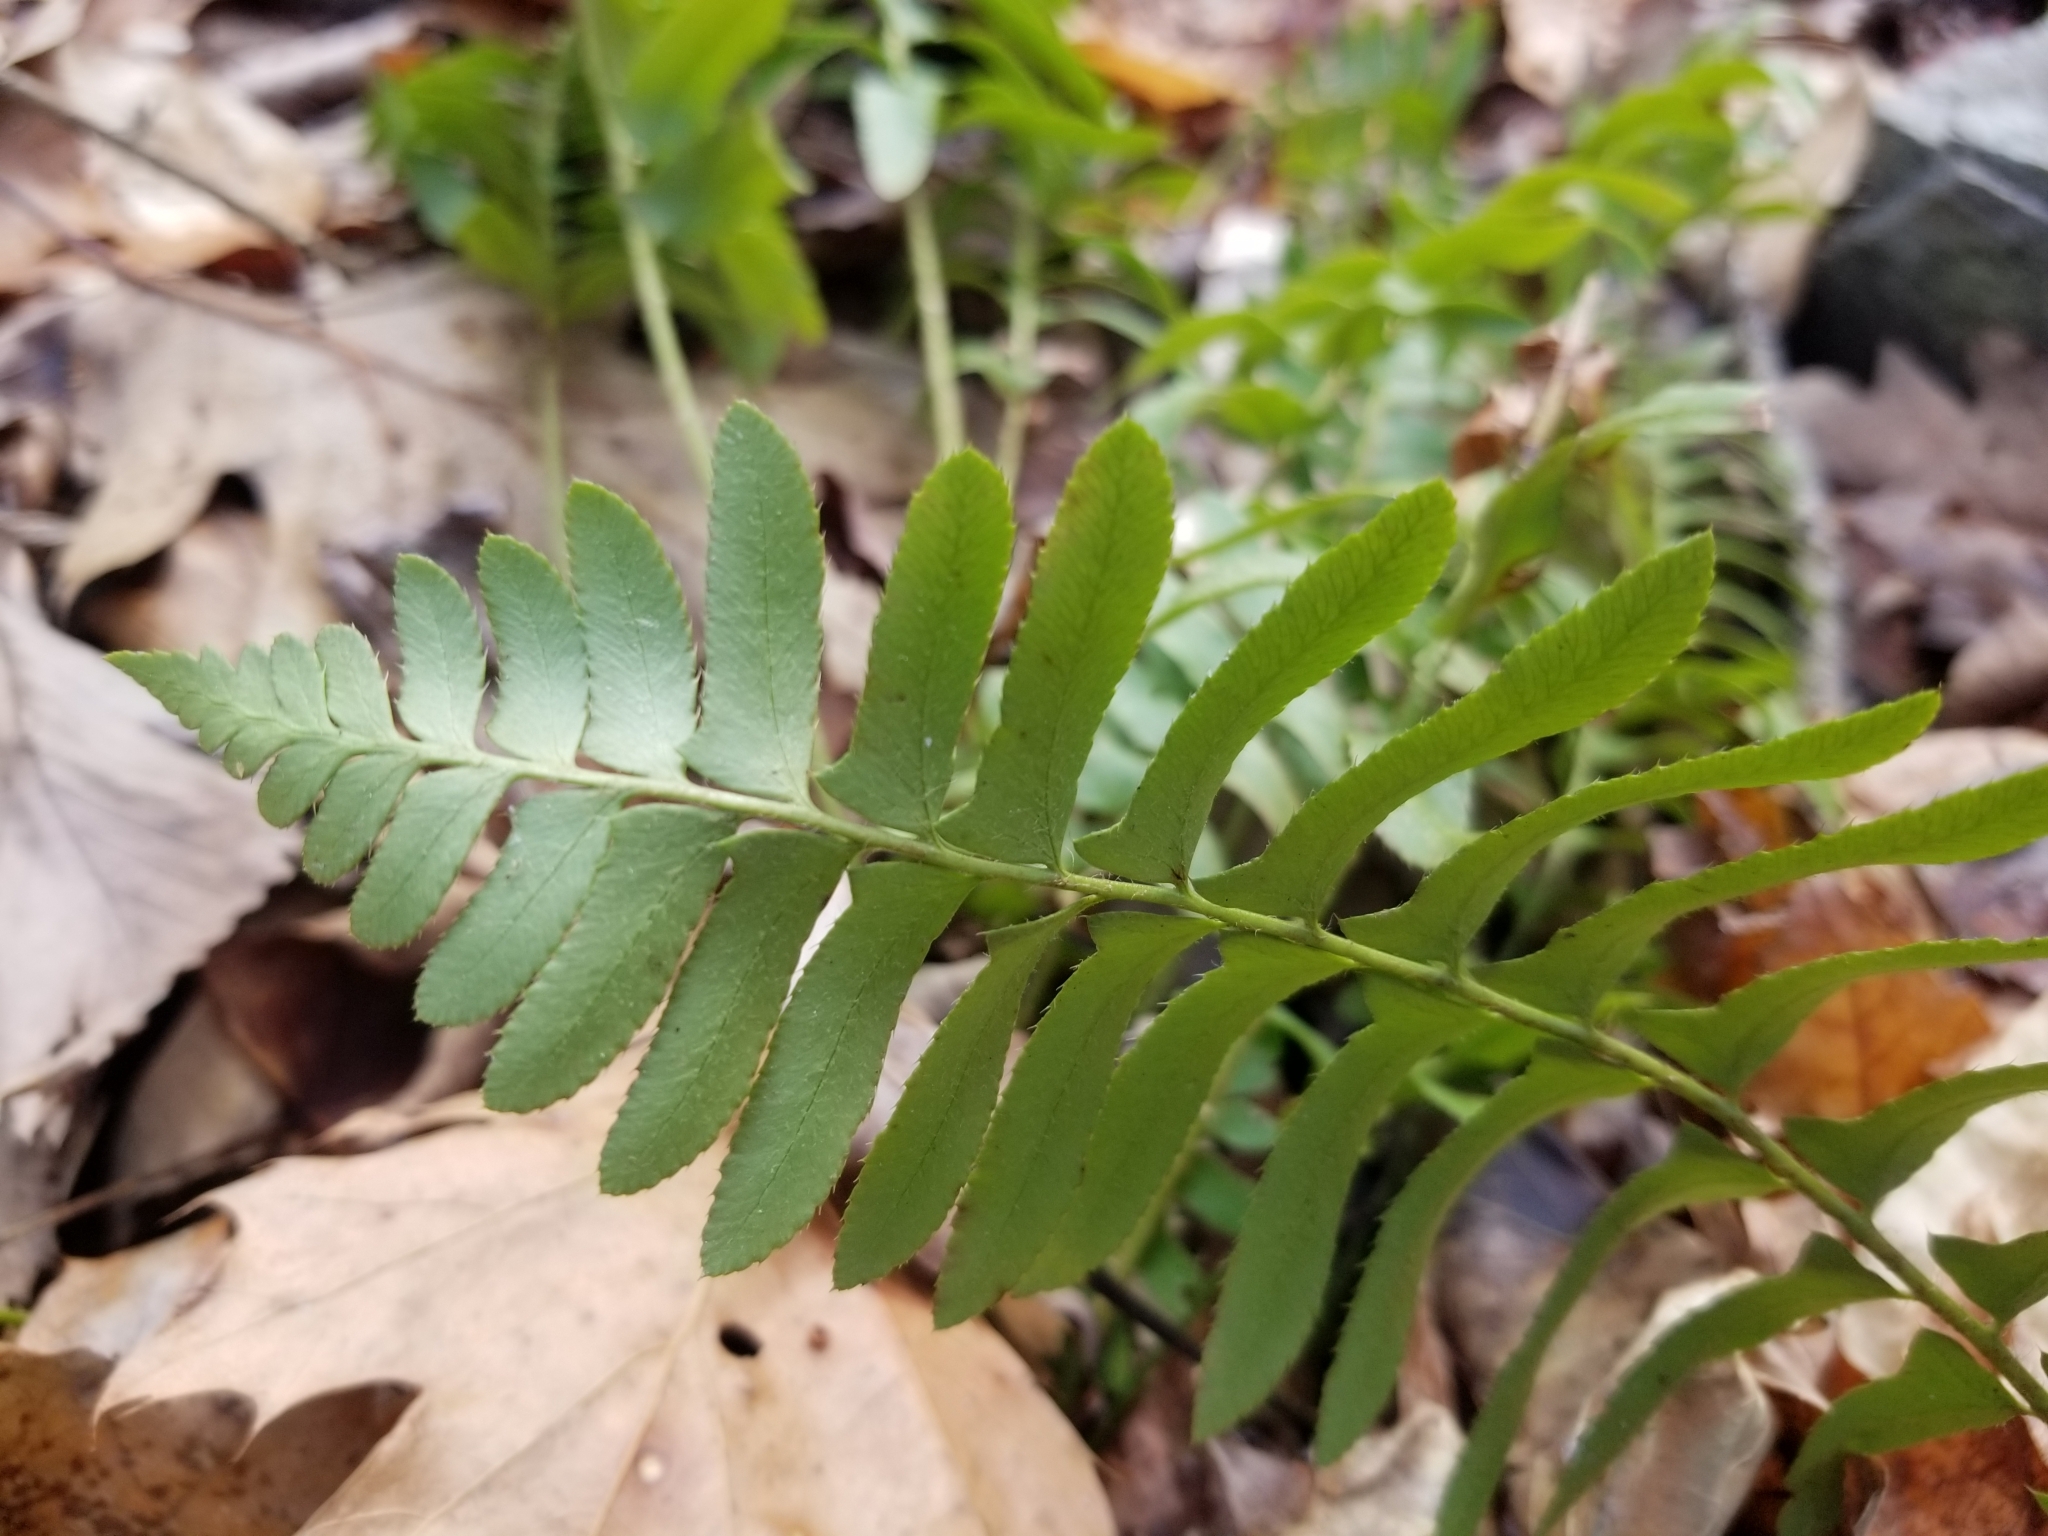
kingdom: Plantae
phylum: Tracheophyta
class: Polypodiopsida
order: Polypodiales
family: Dryopteridaceae
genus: Polystichum
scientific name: Polystichum acrostichoides
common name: Christmas fern
